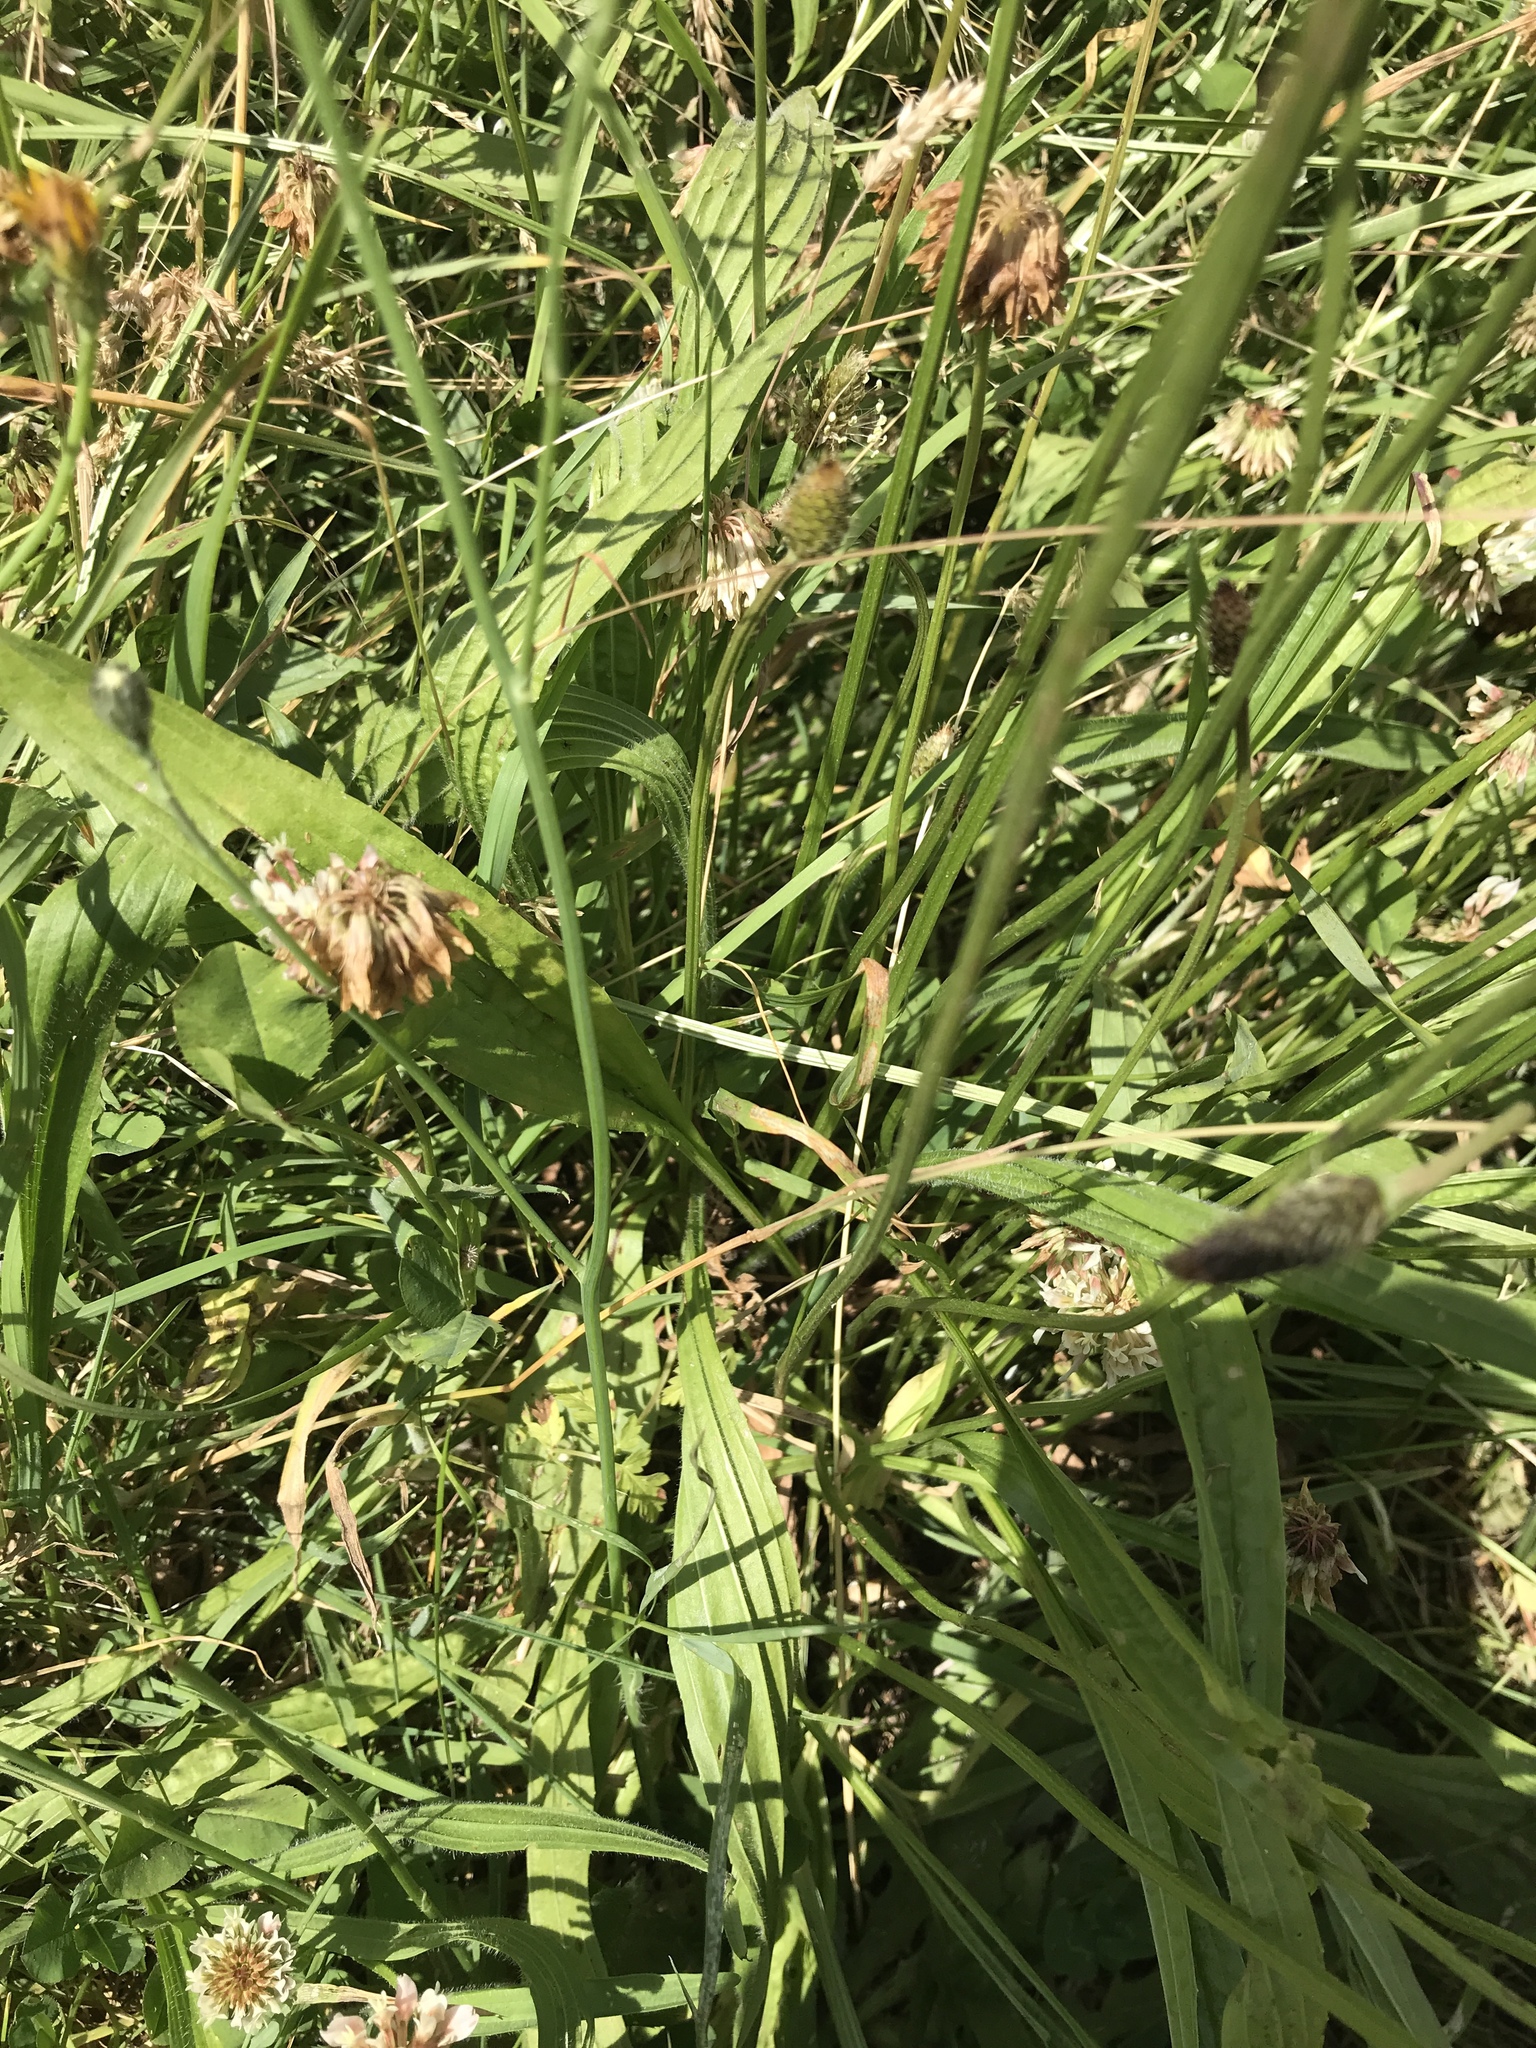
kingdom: Plantae
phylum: Tracheophyta
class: Magnoliopsida
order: Lamiales
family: Plantaginaceae
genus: Plantago
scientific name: Plantago lanceolata
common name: Ribwort plantain
